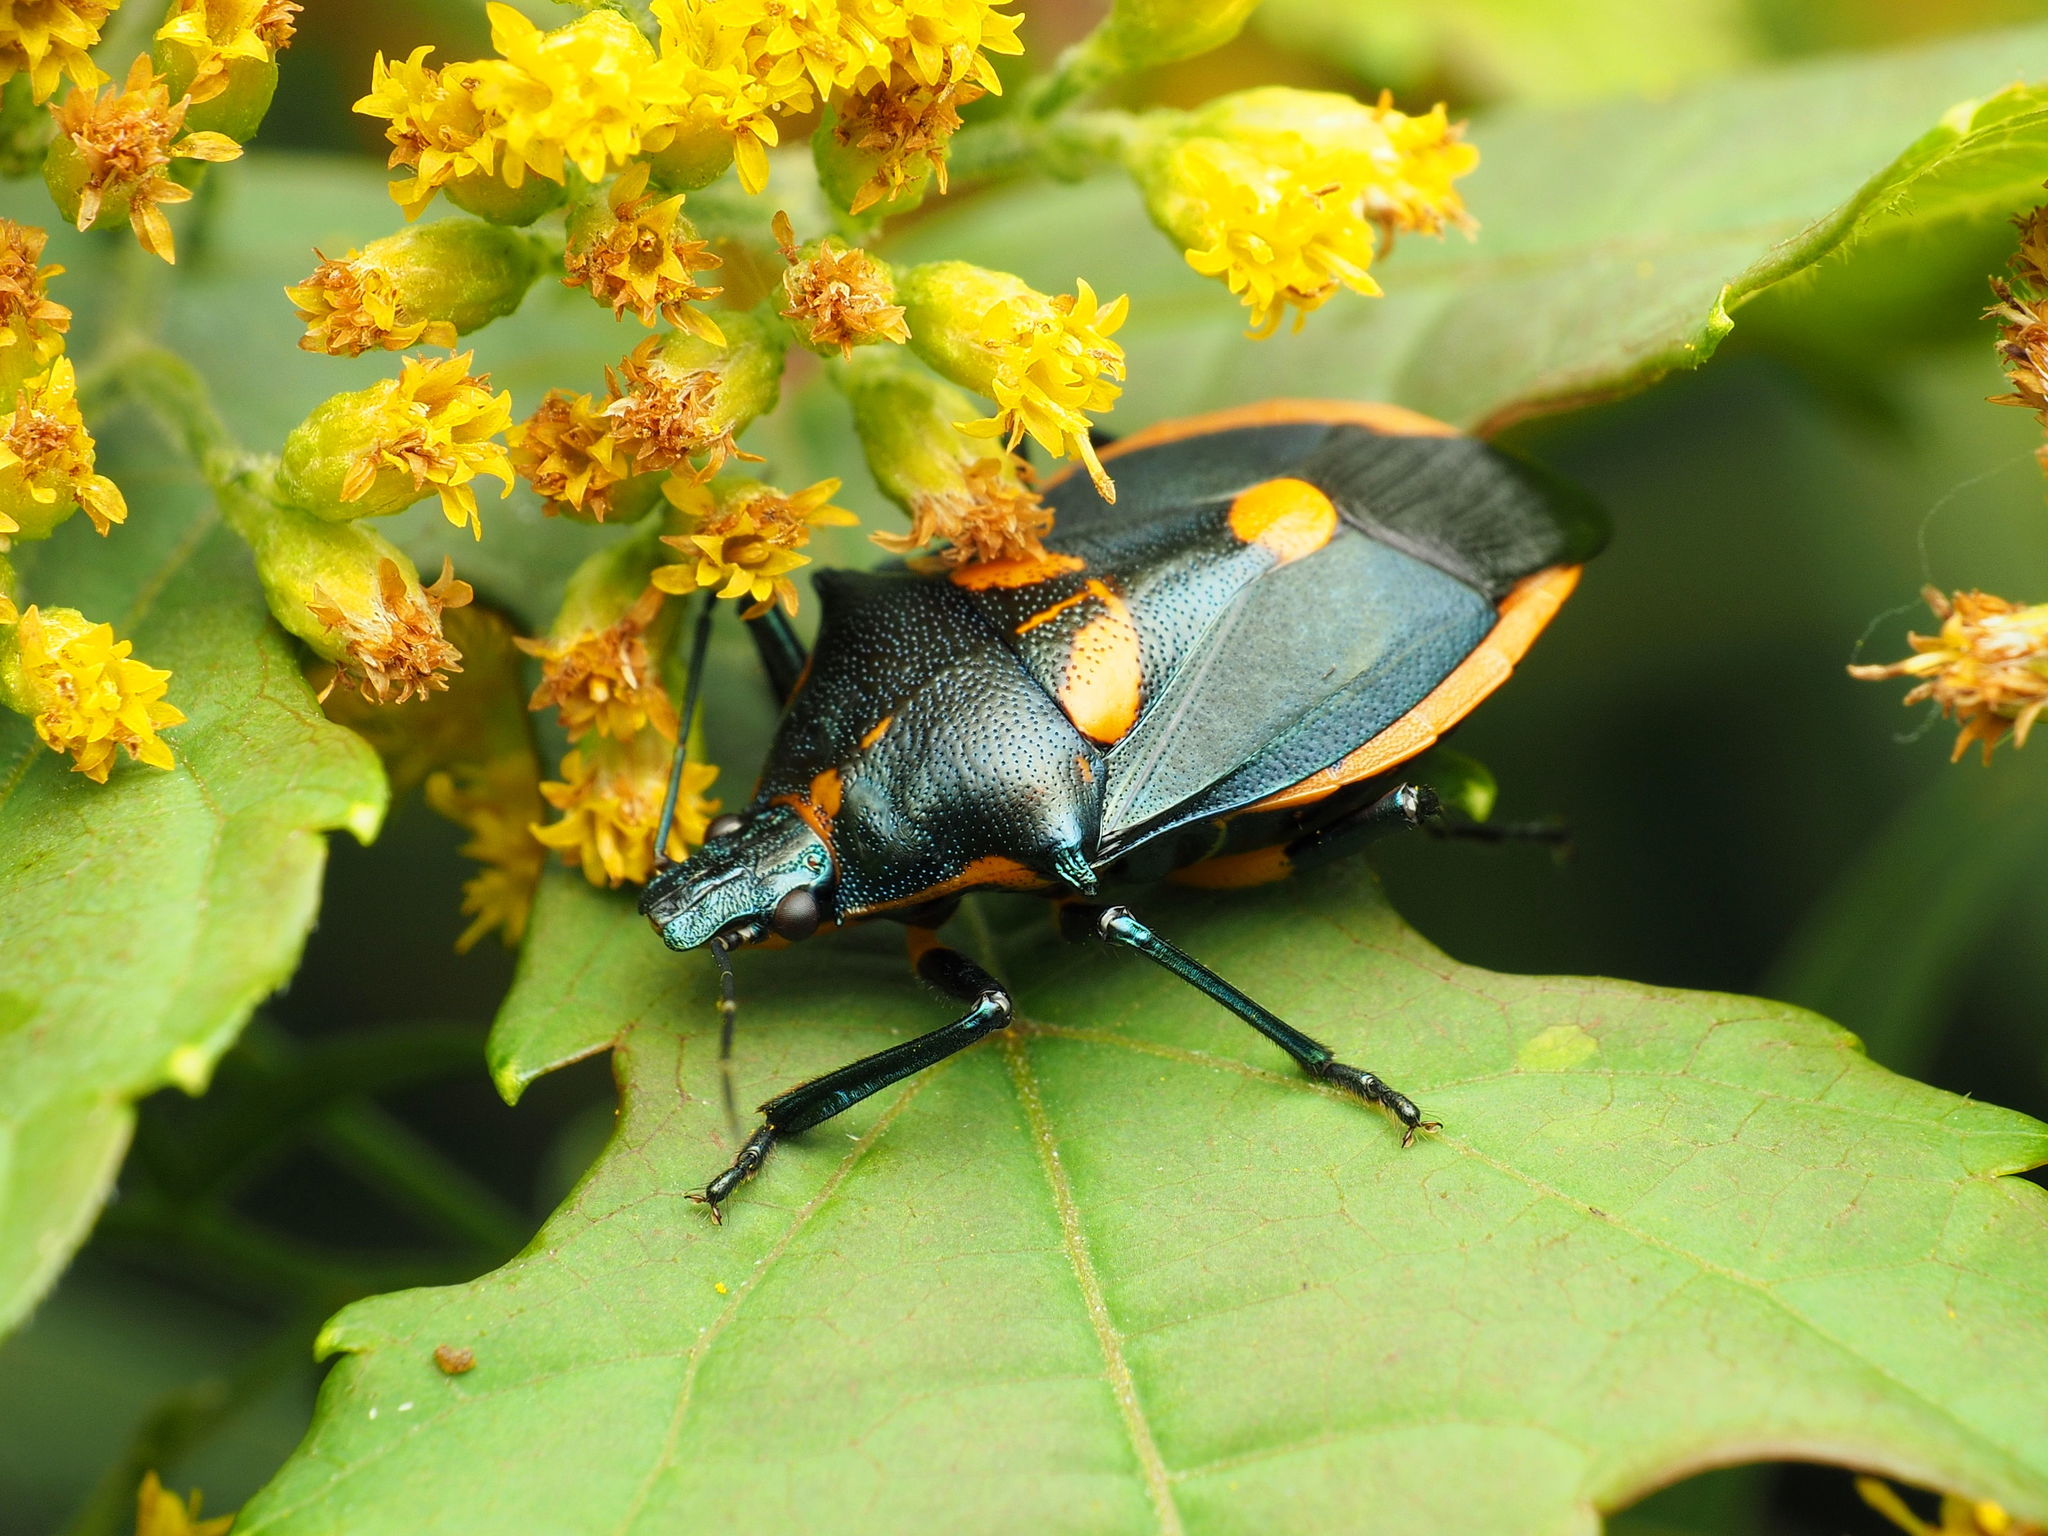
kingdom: Animalia
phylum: Arthropoda
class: Insecta
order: Hemiptera
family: Pentatomidae
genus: Euthyrhynchus
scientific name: Euthyrhynchus floridanus
